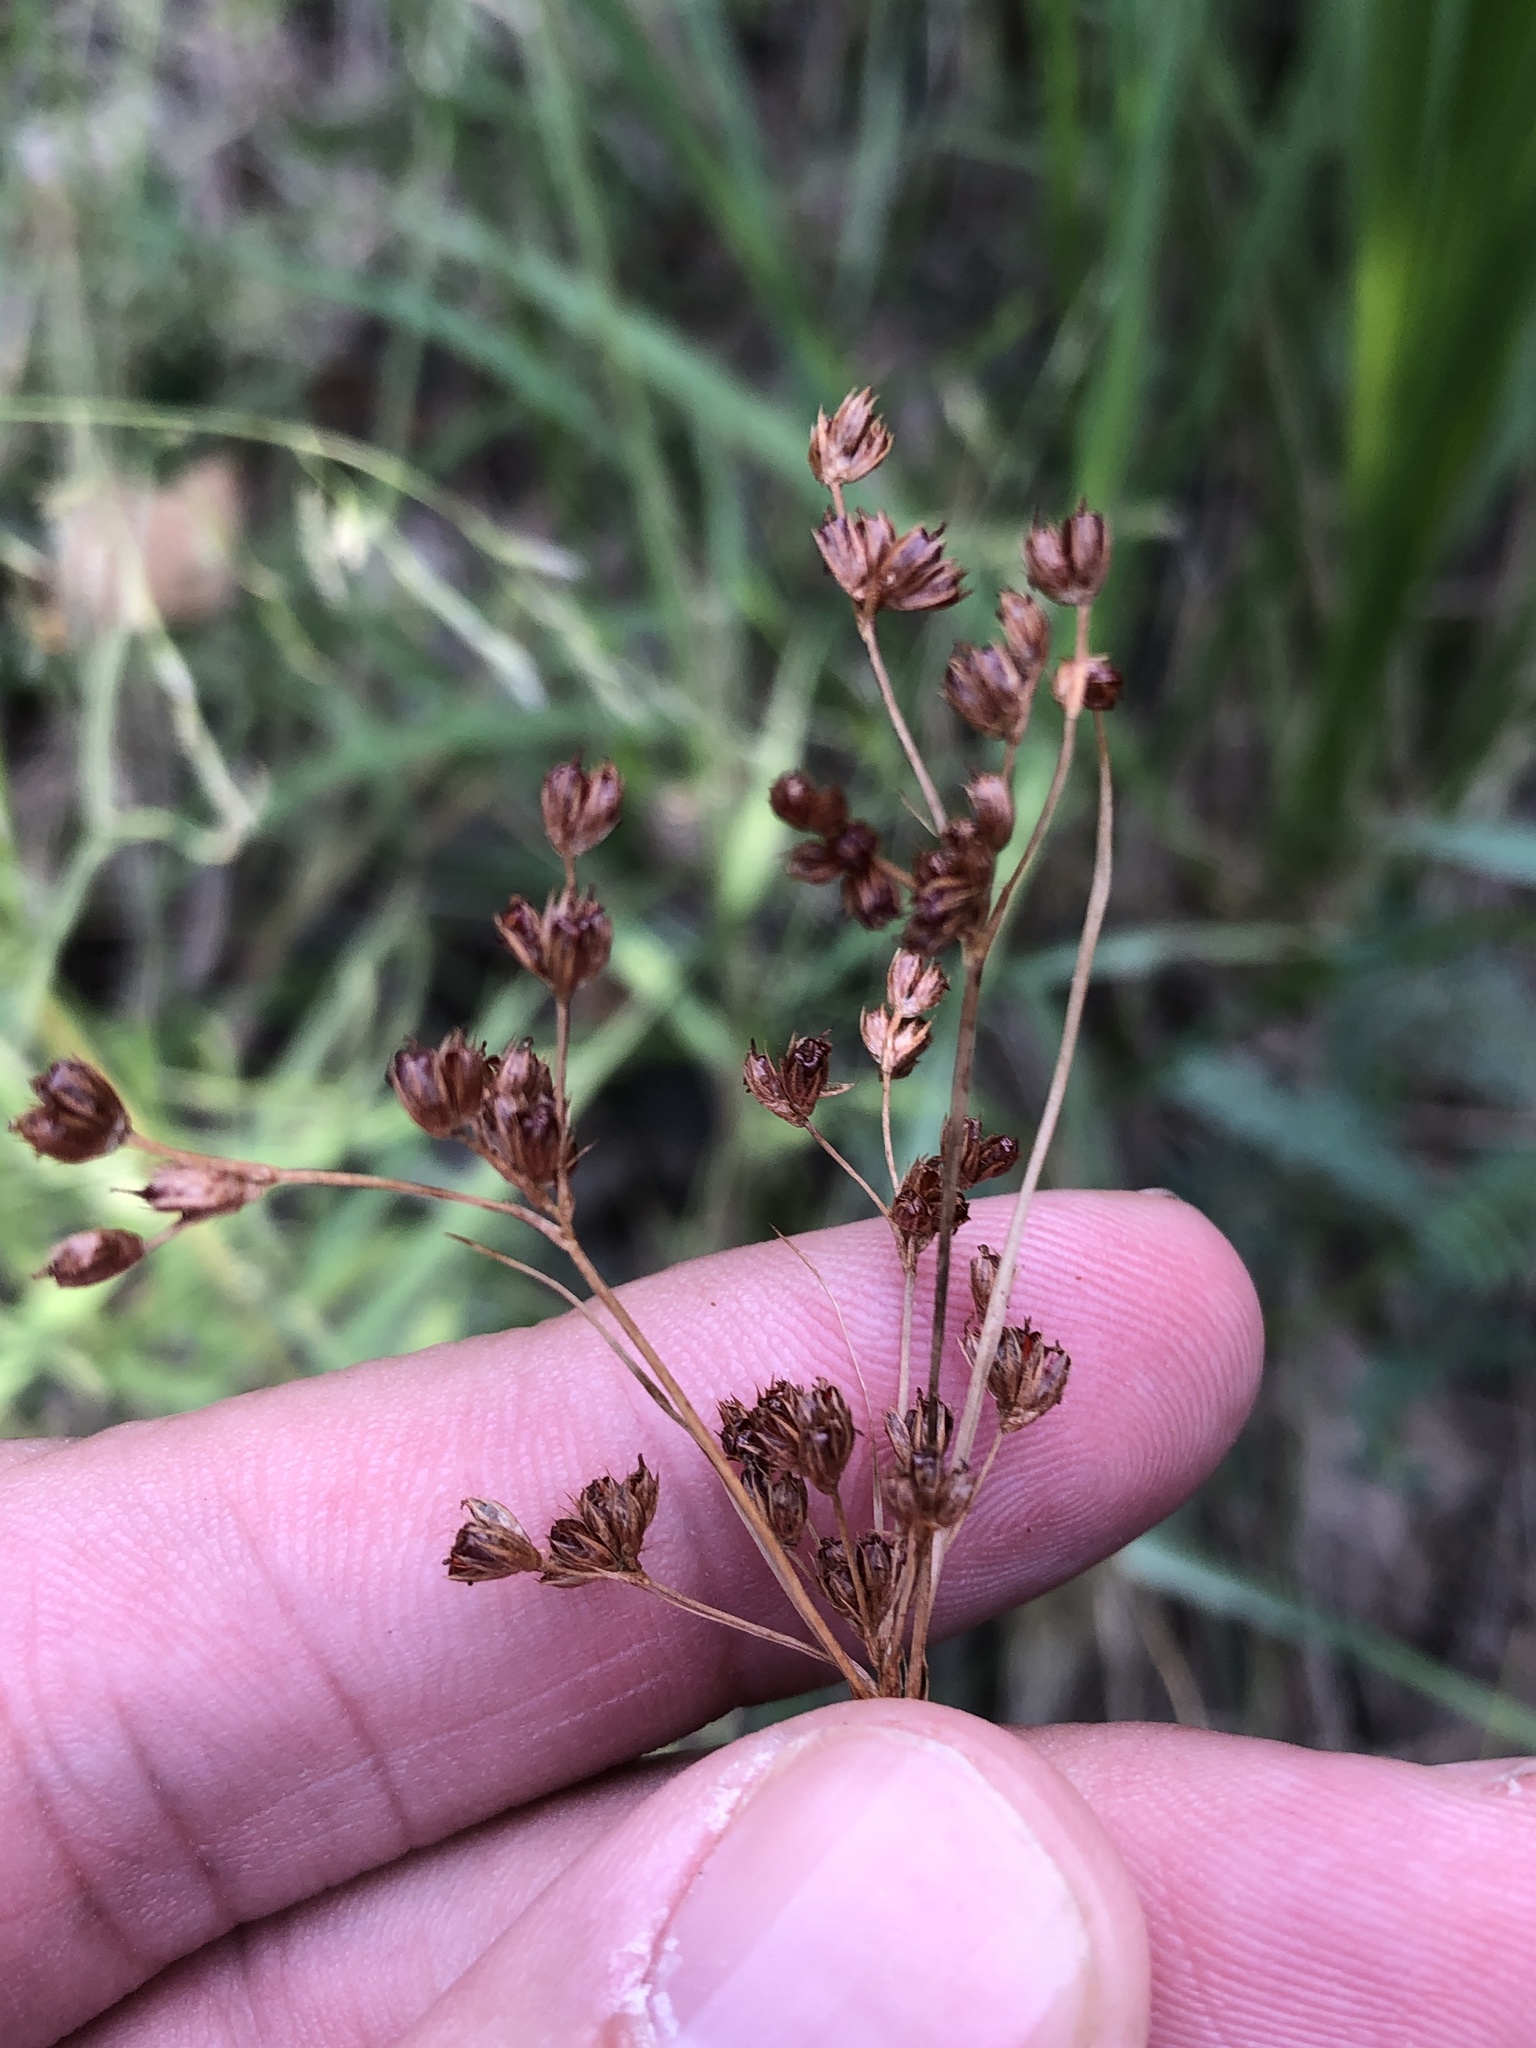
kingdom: Plantae
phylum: Tracheophyta
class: Liliopsida
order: Poales
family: Juncaceae
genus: Juncus
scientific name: Juncus marginatus
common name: Grass-leaf rush
